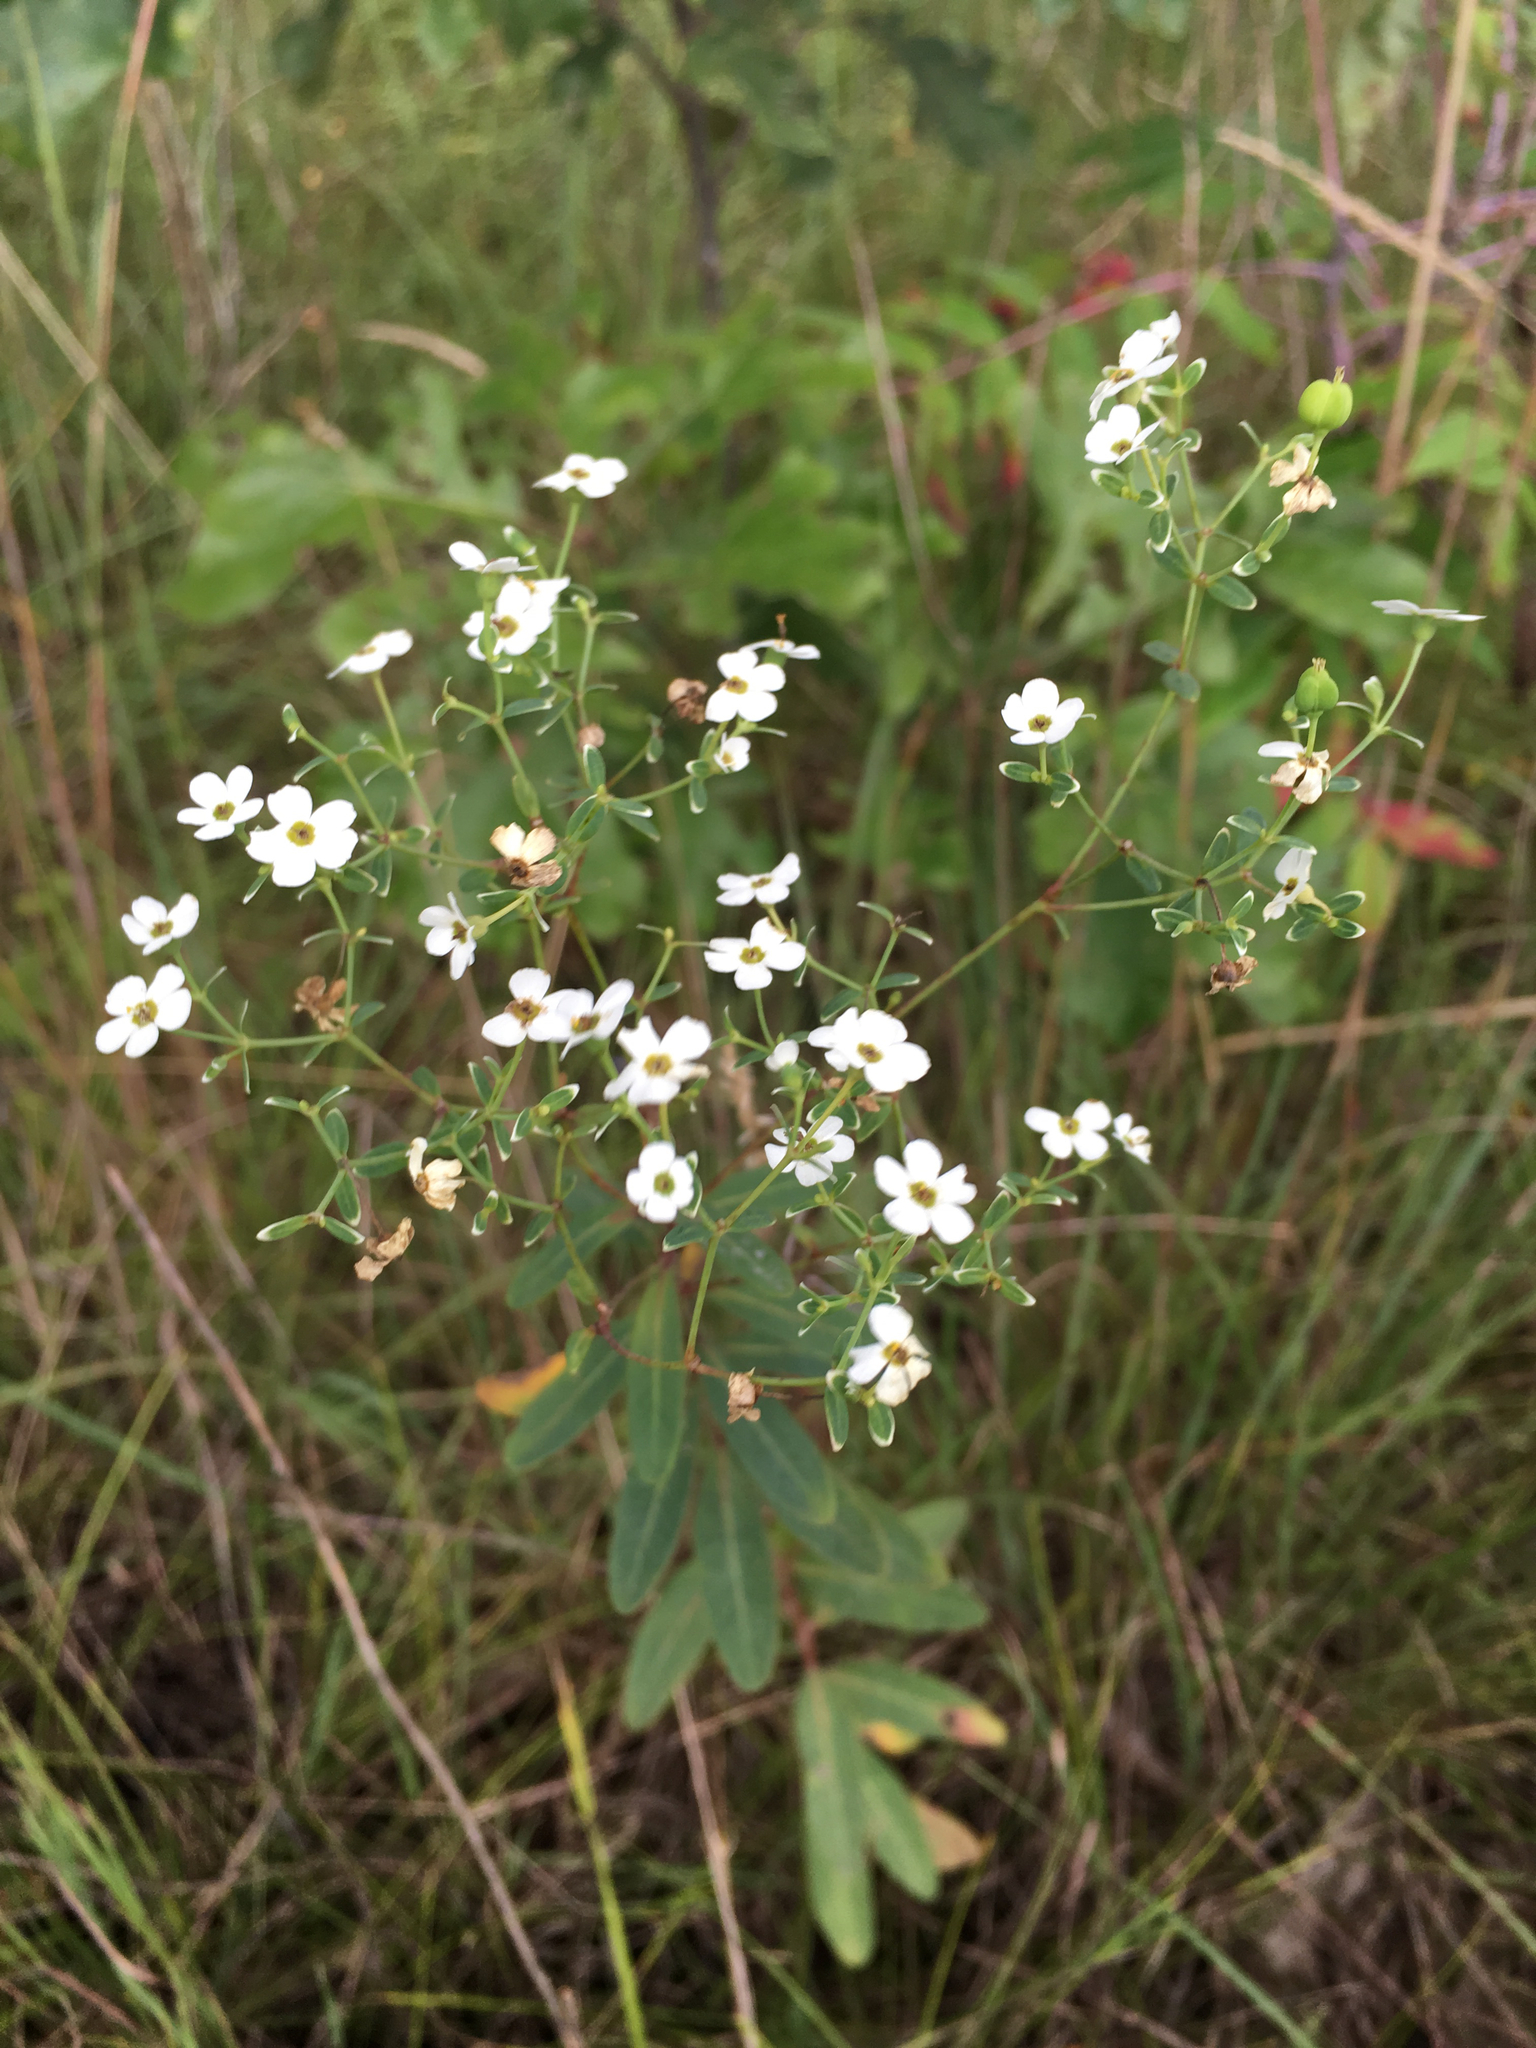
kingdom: Plantae
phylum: Tracheophyta
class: Magnoliopsida
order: Malpighiales
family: Euphorbiaceae
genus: Euphorbia
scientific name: Euphorbia corollata
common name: Flowering spurge
